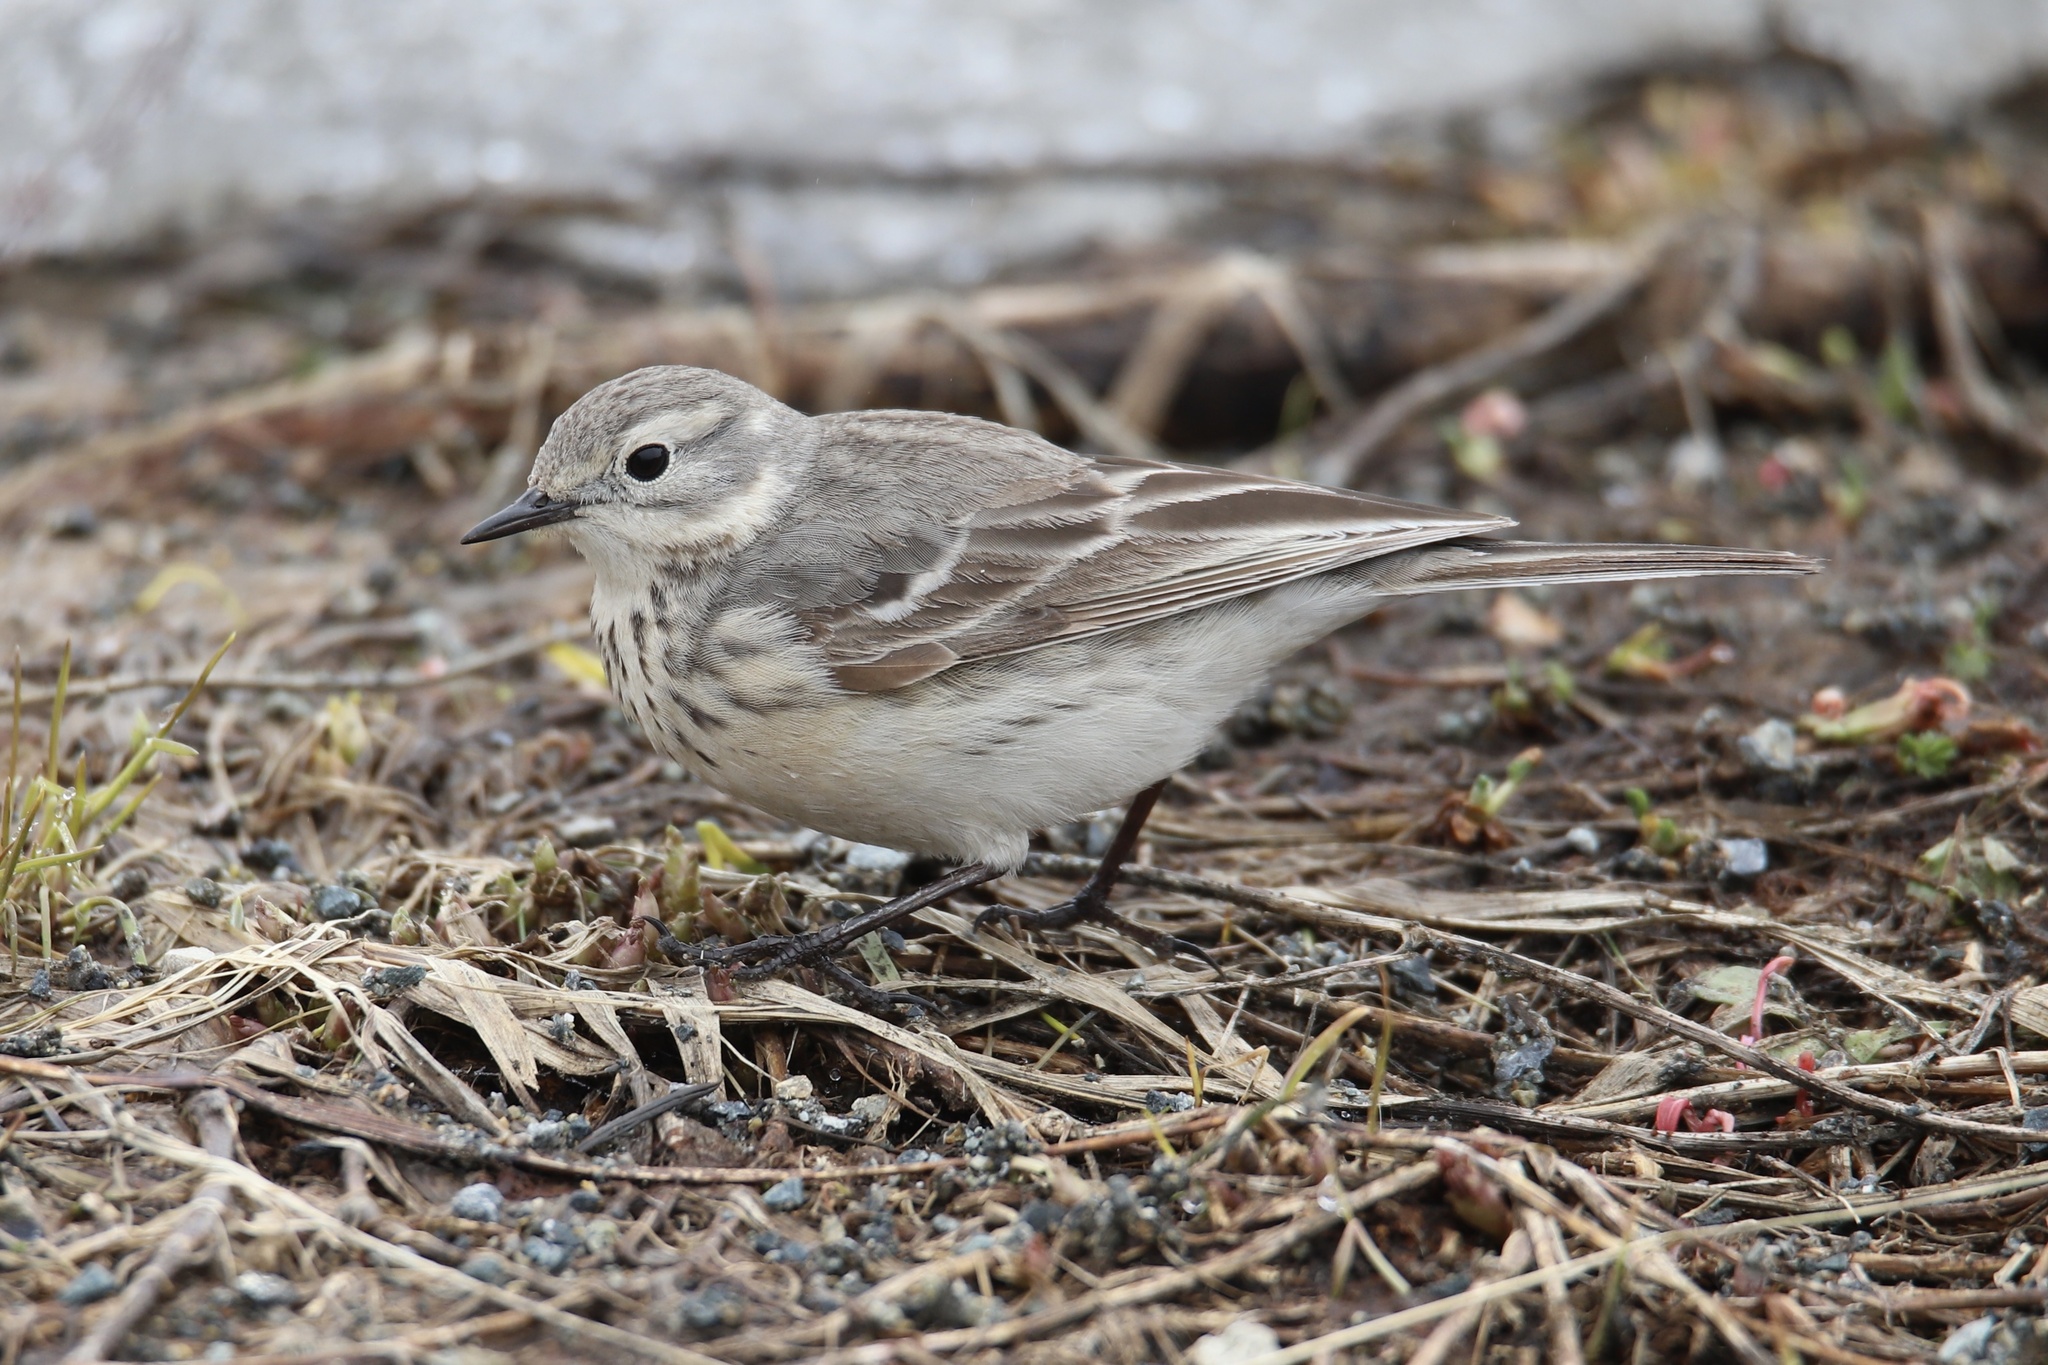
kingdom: Animalia
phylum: Chordata
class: Aves
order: Passeriformes
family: Motacillidae
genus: Anthus
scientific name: Anthus rubescens
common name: Buff-bellied pipit
